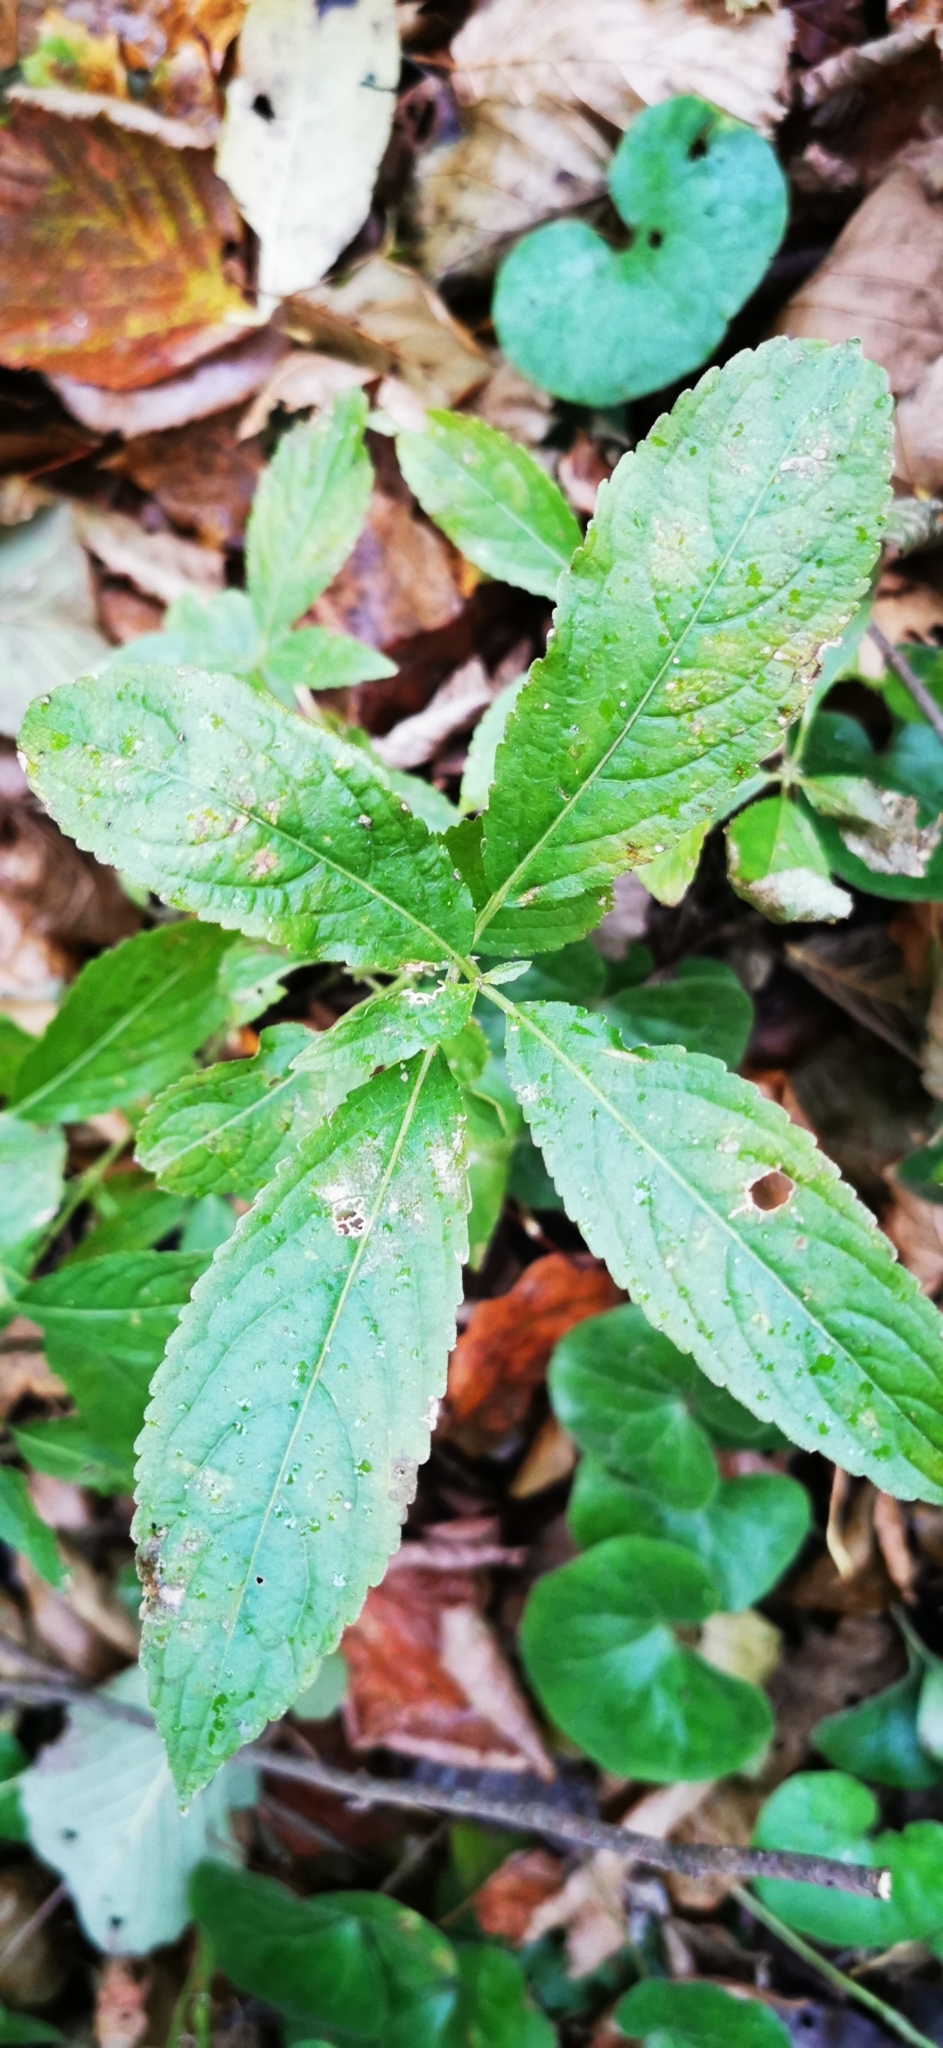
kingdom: Plantae
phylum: Tracheophyta
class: Magnoliopsida
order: Malpighiales
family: Euphorbiaceae
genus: Mercurialis
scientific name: Mercurialis perennis
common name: Dog mercury
